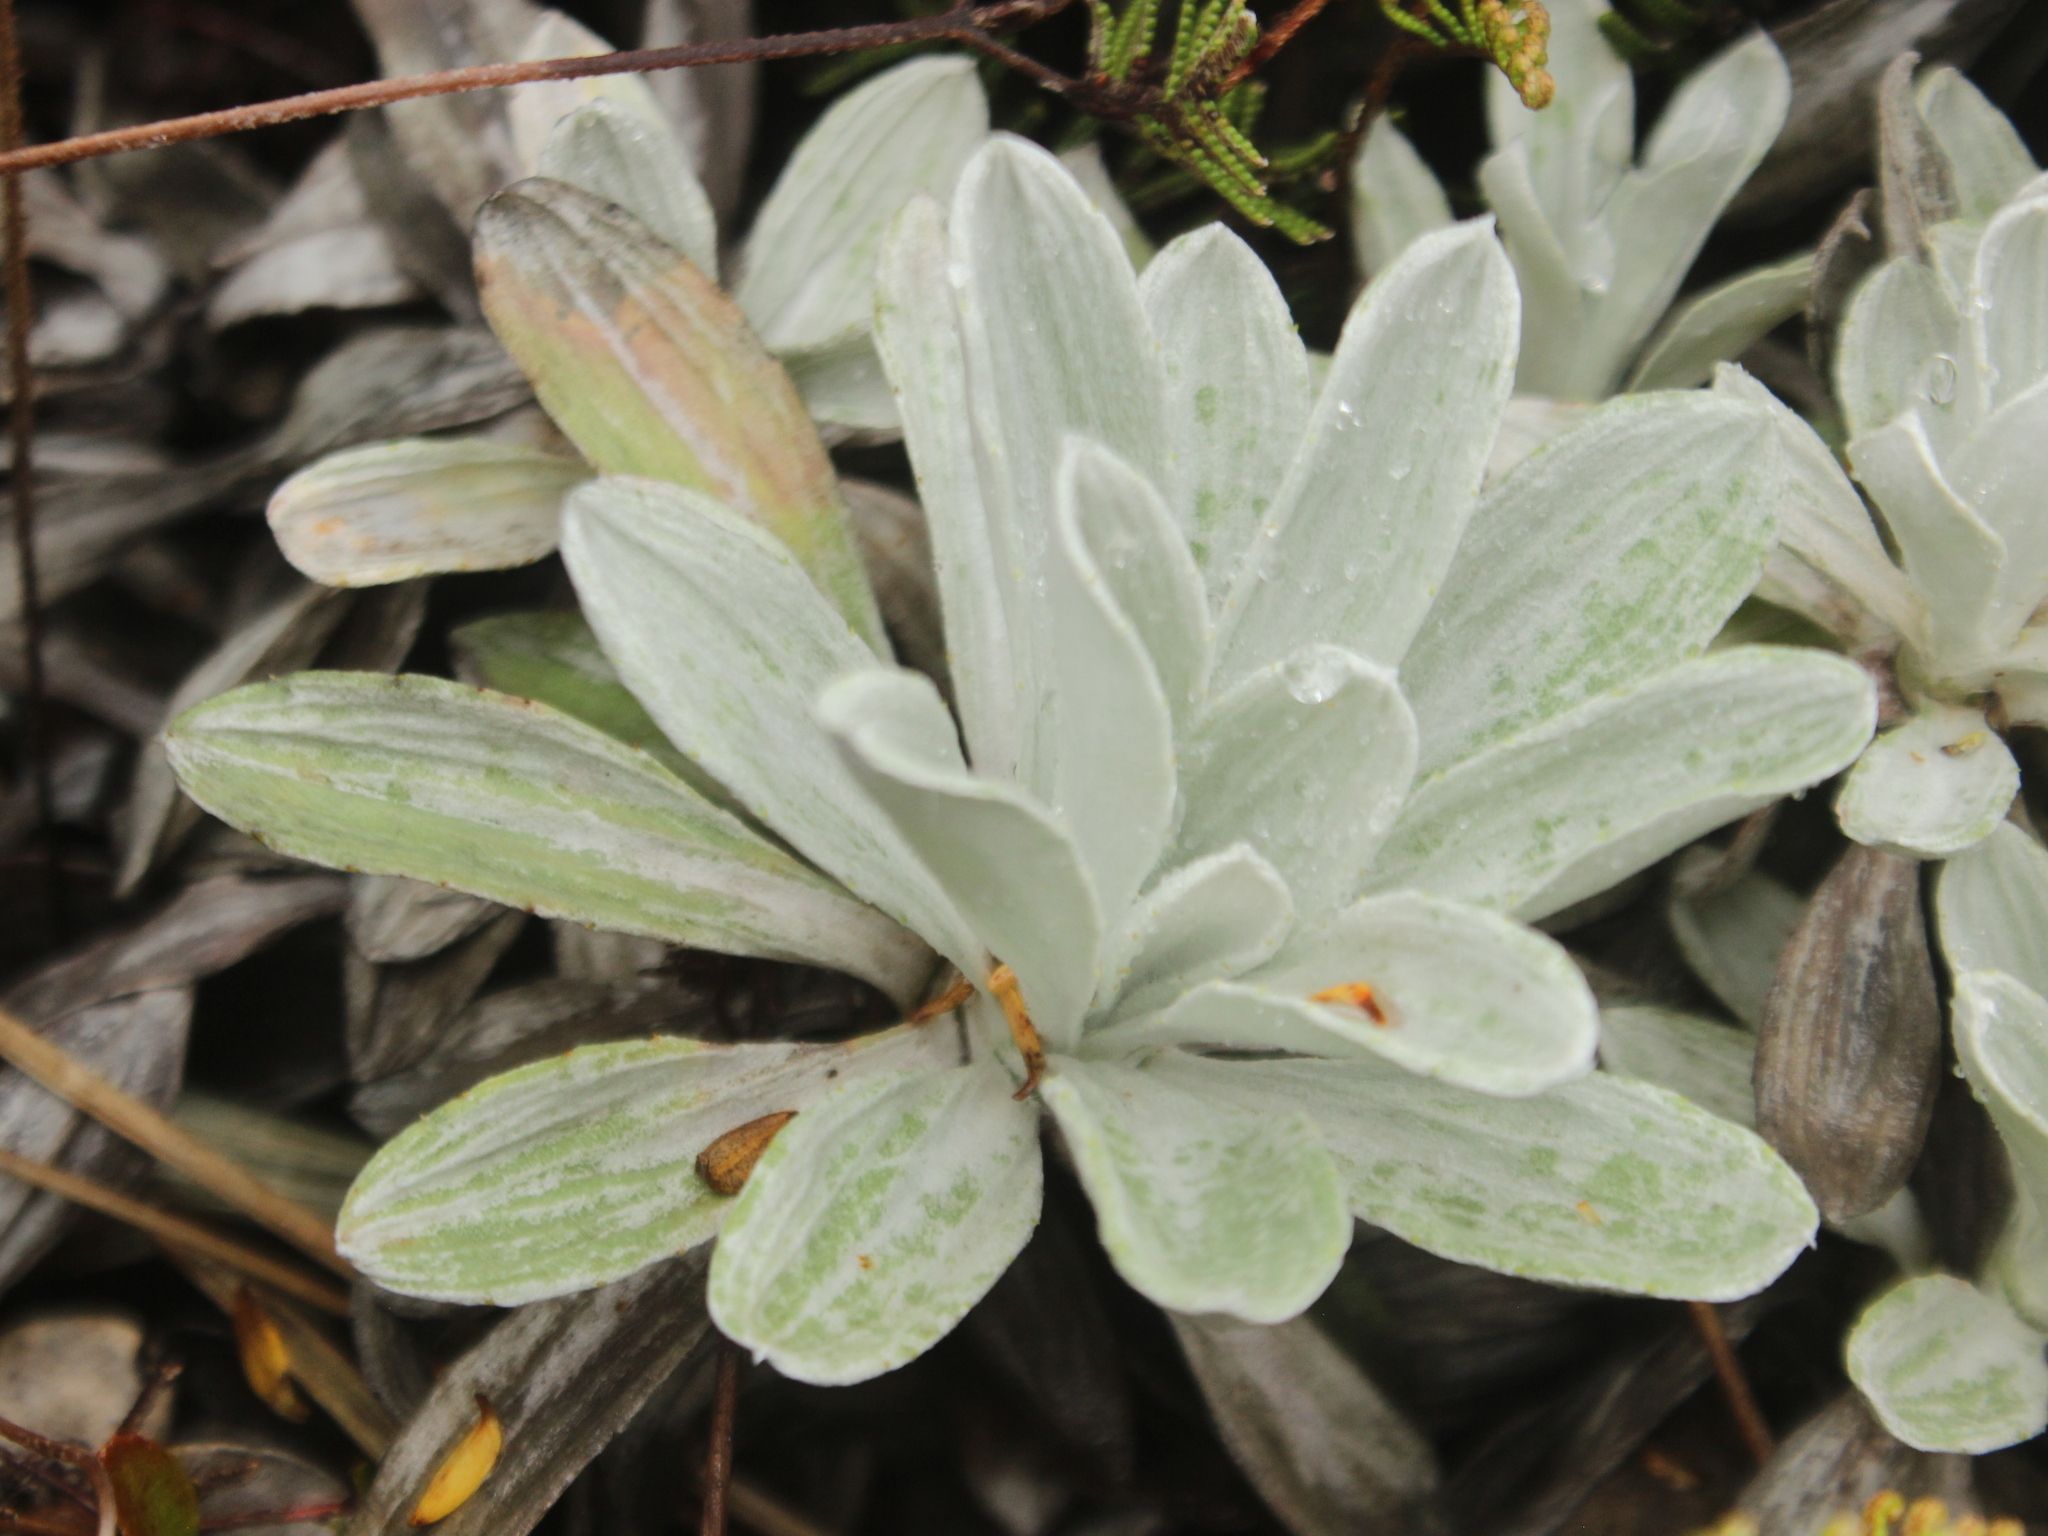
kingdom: Plantae
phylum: Tracheophyta
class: Magnoliopsida
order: Asterales
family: Asteraceae
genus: Celmisia
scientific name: Celmisia incana
